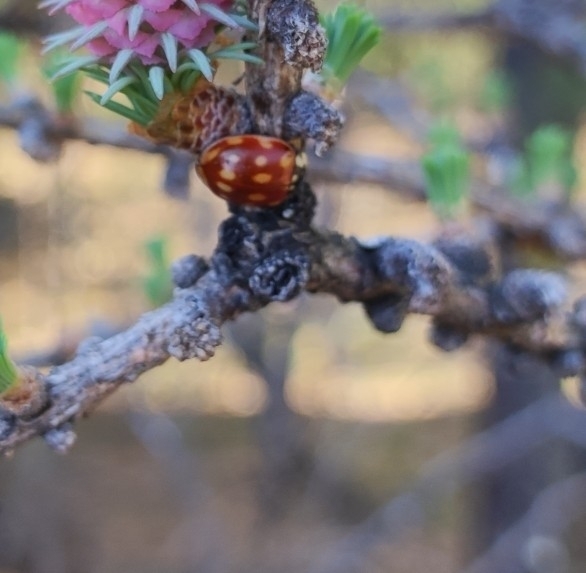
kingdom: Animalia
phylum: Arthropoda
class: Insecta
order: Coleoptera
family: Coccinellidae
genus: Anatis
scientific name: Anatis ocellata
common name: Eyed ladybird
